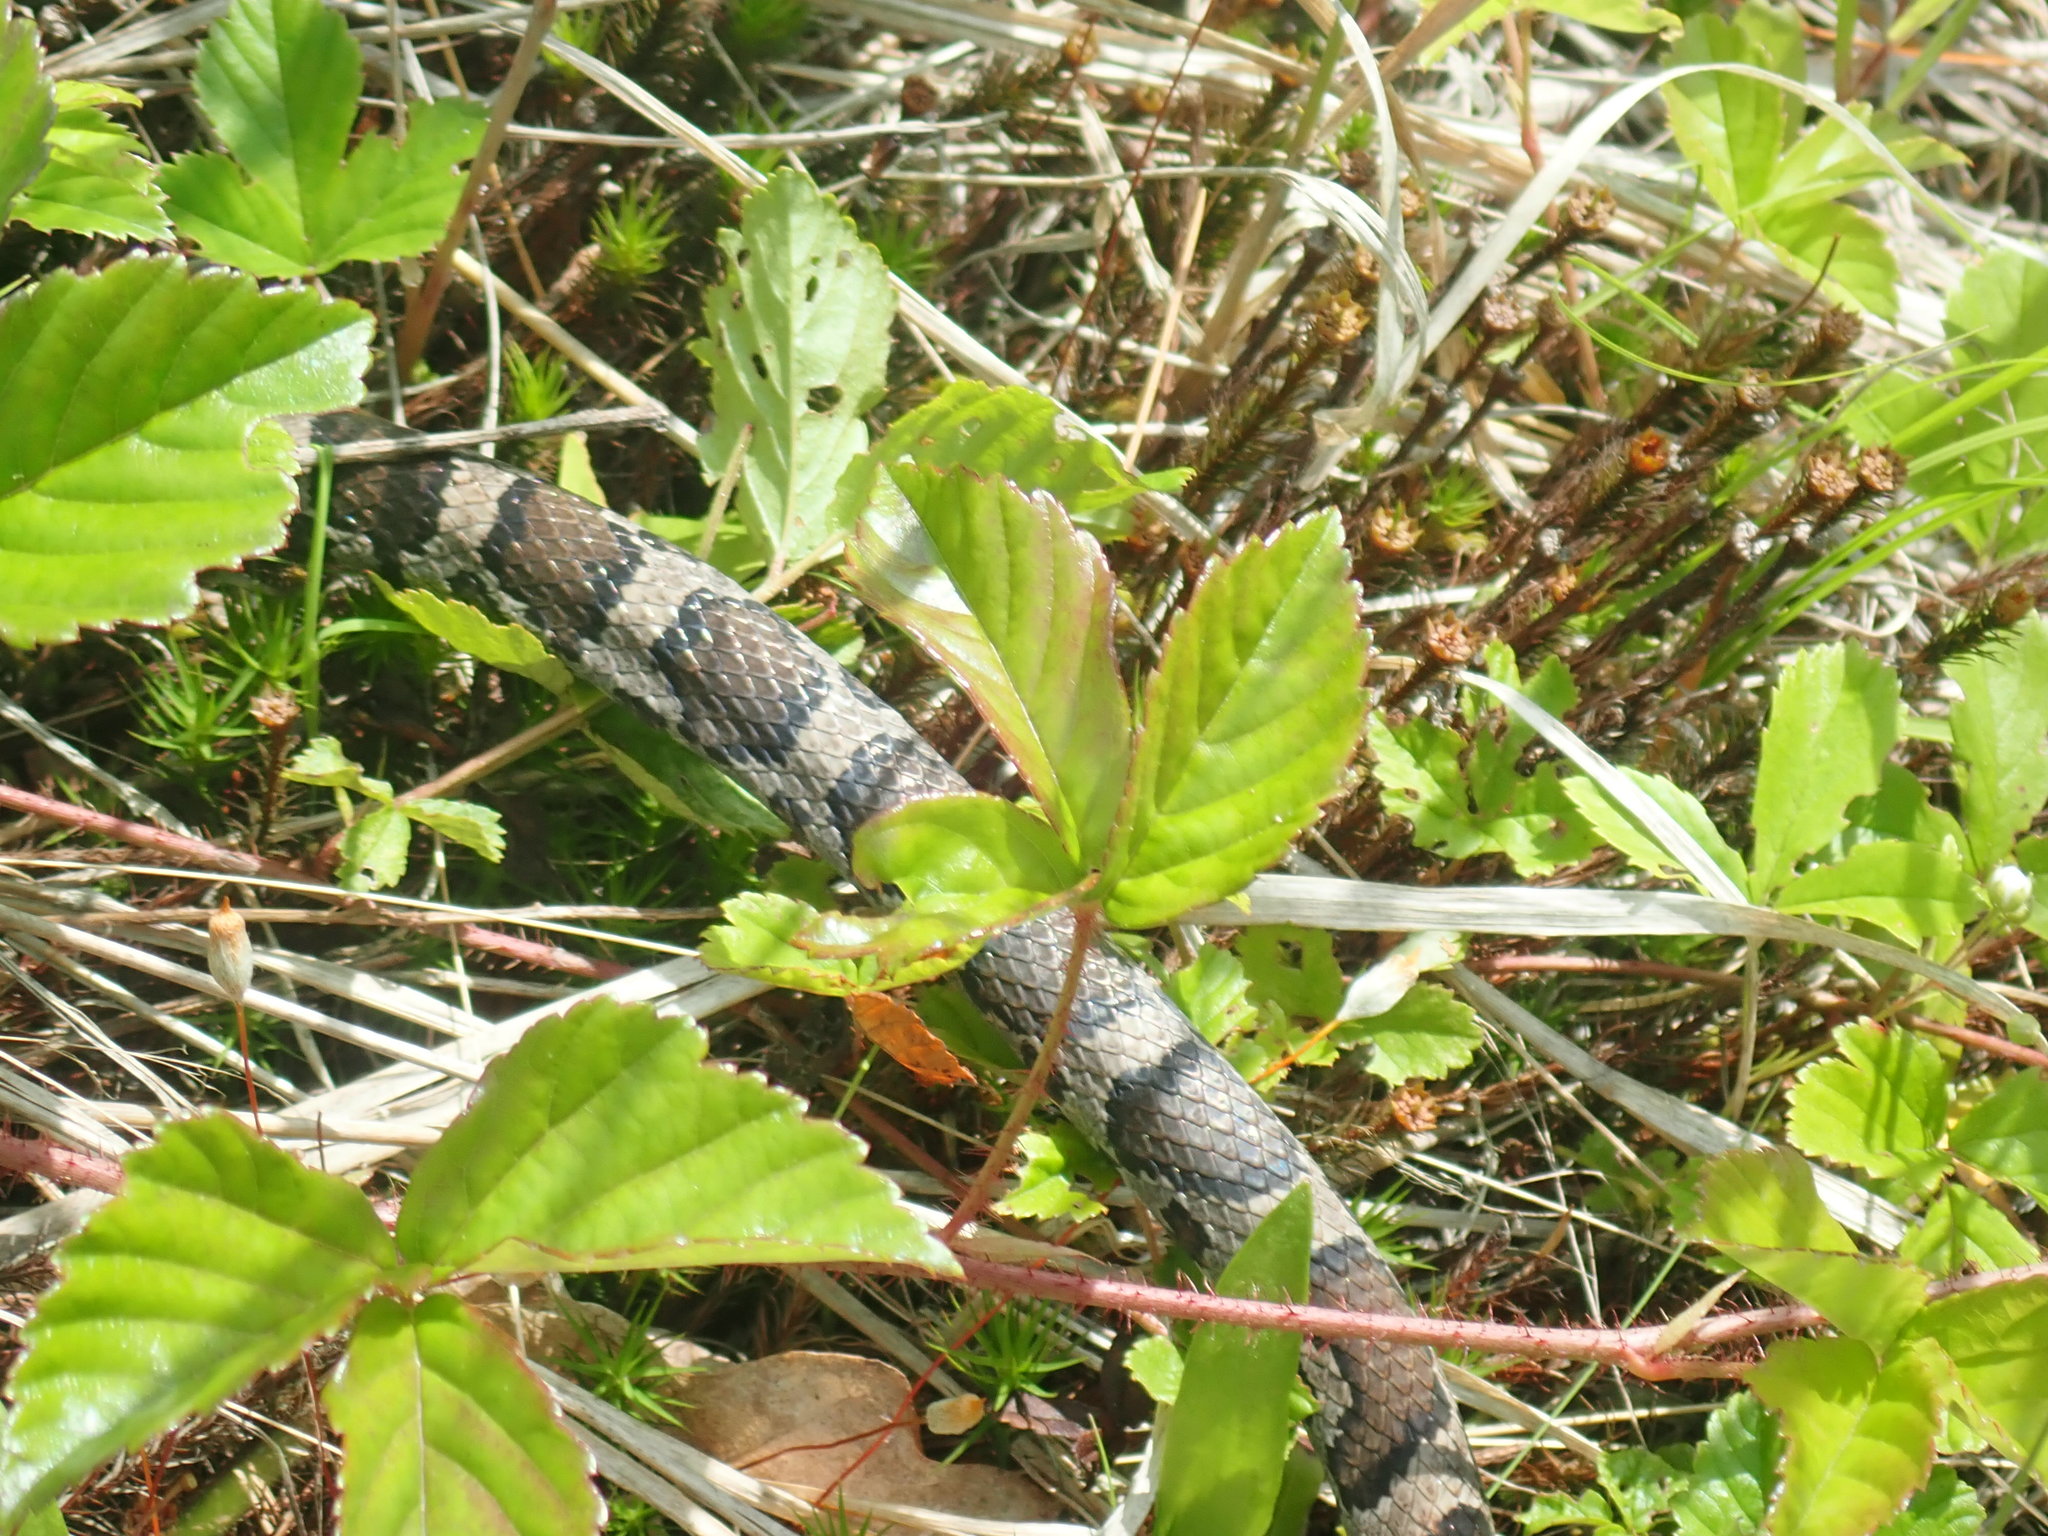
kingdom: Animalia
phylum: Chordata
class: Squamata
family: Colubridae
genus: Lampropeltis
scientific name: Lampropeltis triangulum
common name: Eastern milksnake
